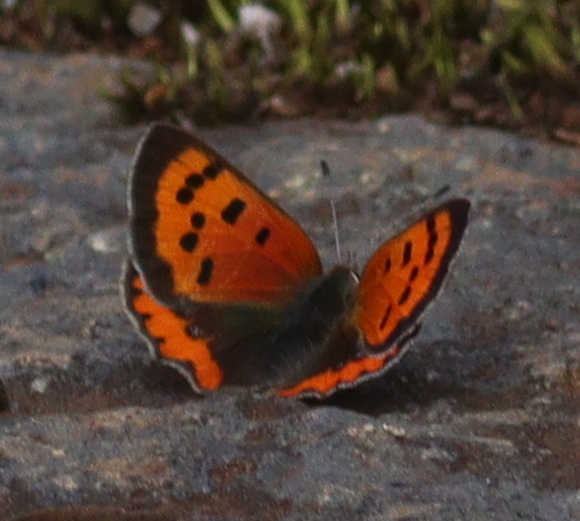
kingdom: Animalia
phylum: Arthropoda
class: Insecta
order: Lepidoptera
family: Lycaenidae
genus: Lycaena
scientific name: Lycaena phlaeas
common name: Small copper
